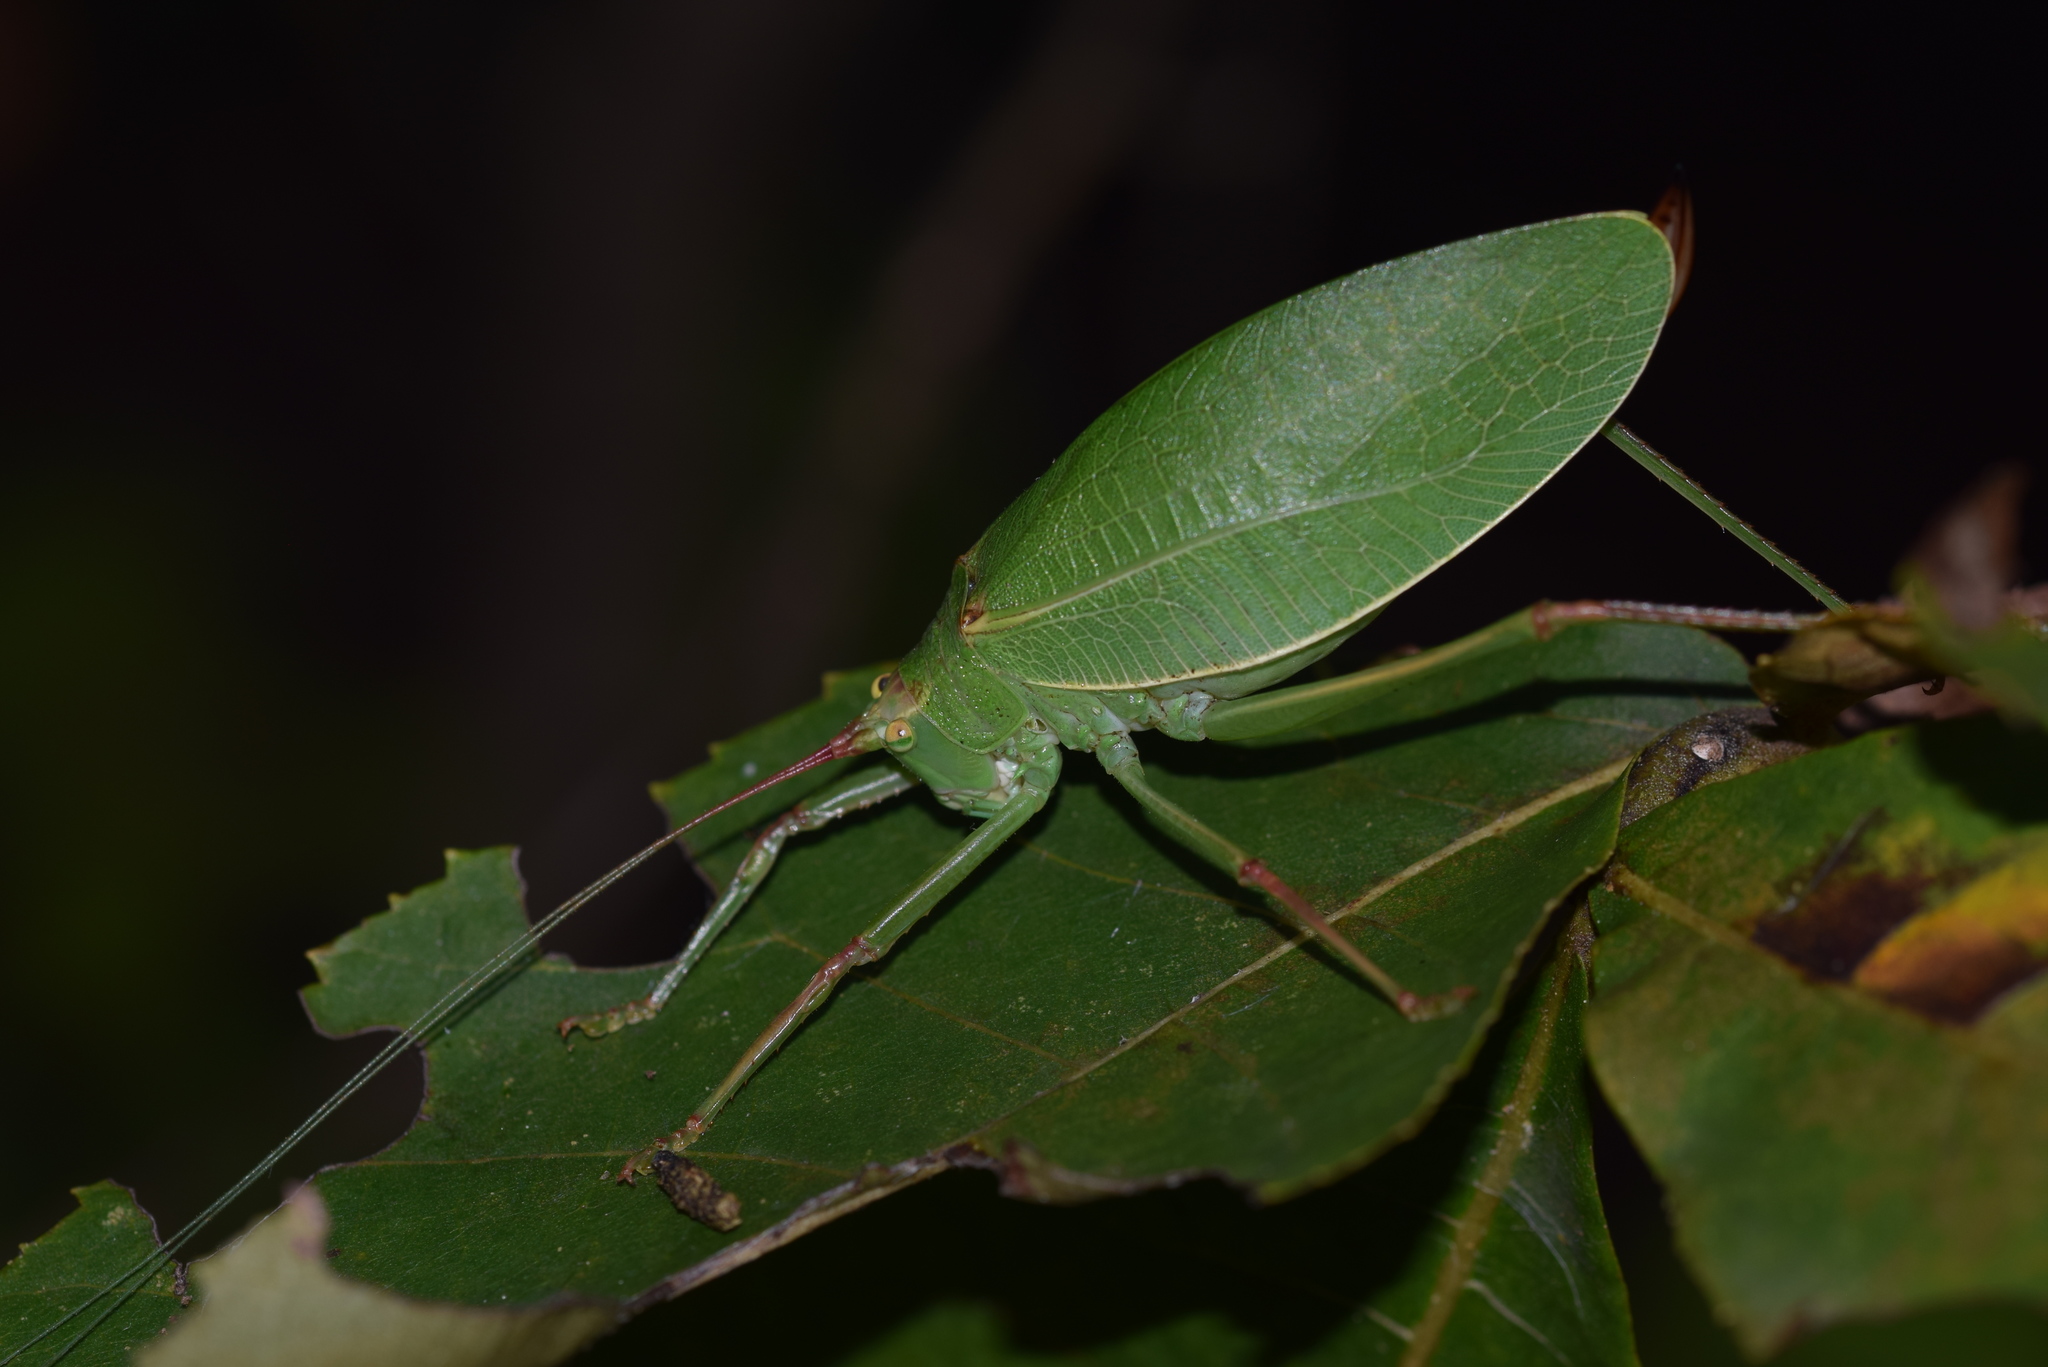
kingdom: Animalia
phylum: Arthropoda
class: Insecta
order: Orthoptera
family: Tettigoniidae
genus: Pterophylla
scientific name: Pterophylla camellifolia
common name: Common true katydid
